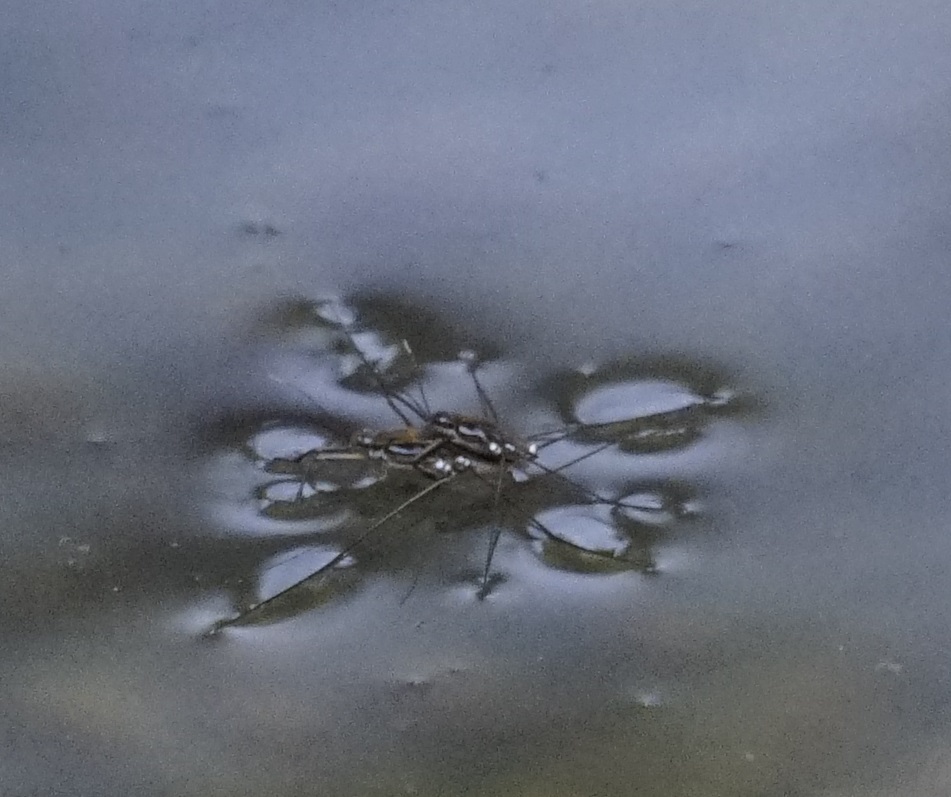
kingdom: Animalia
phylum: Arthropoda
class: Insecta
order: Hemiptera
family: Gerridae
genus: Tenagogerris
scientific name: Tenagogerris euphrosyne
